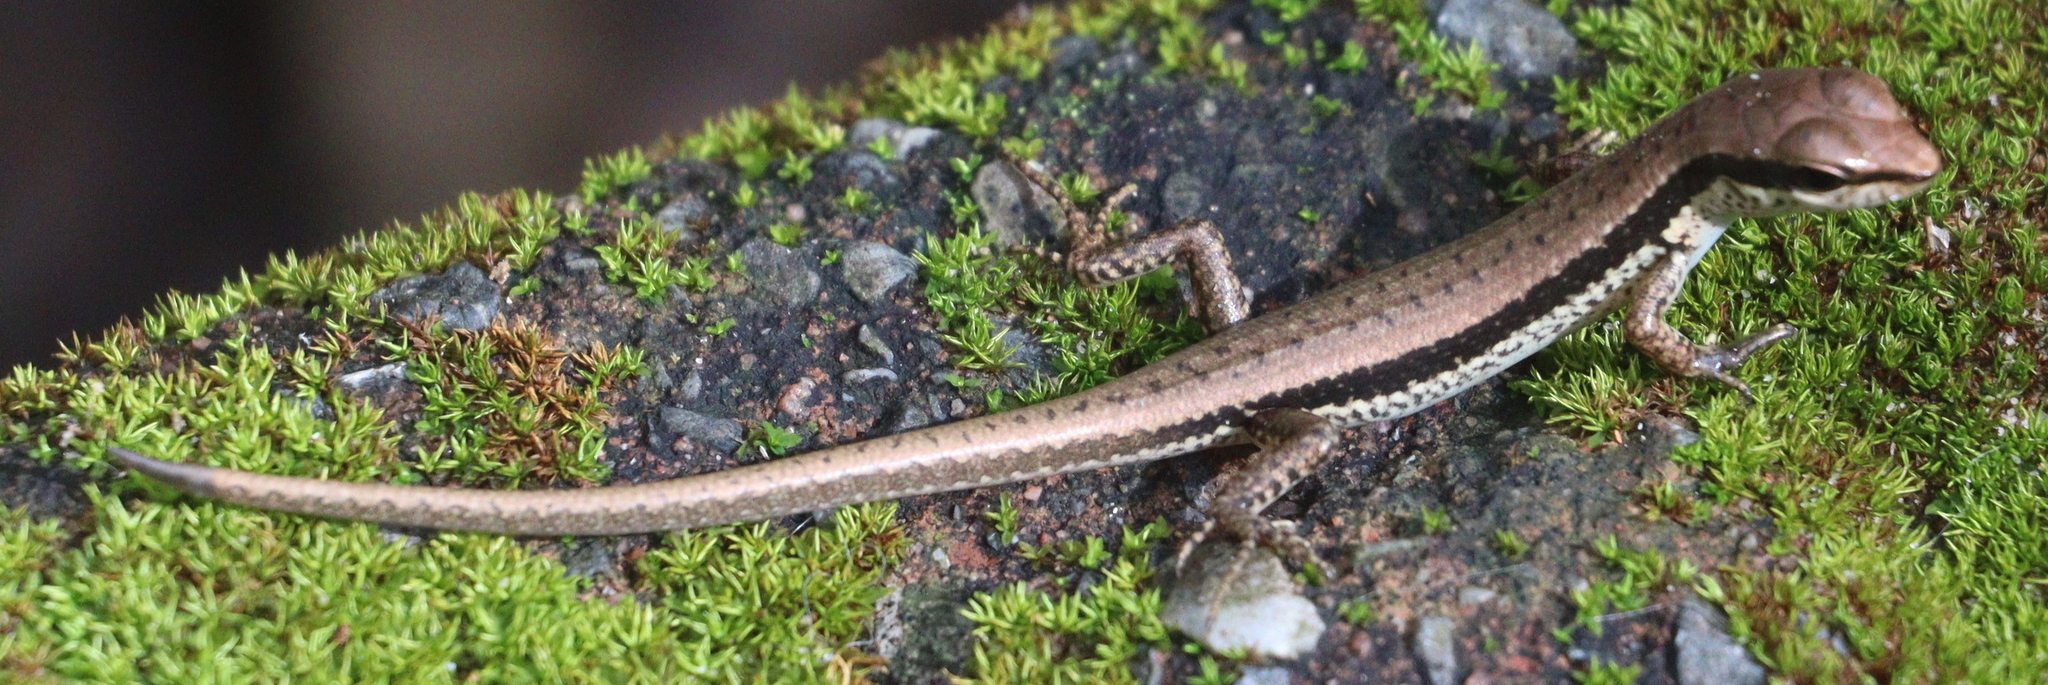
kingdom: Animalia
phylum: Chordata
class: Squamata
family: Scincidae
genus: Sphenomorphus
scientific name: Sphenomorphus maculatus
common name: Maculated forest skink
